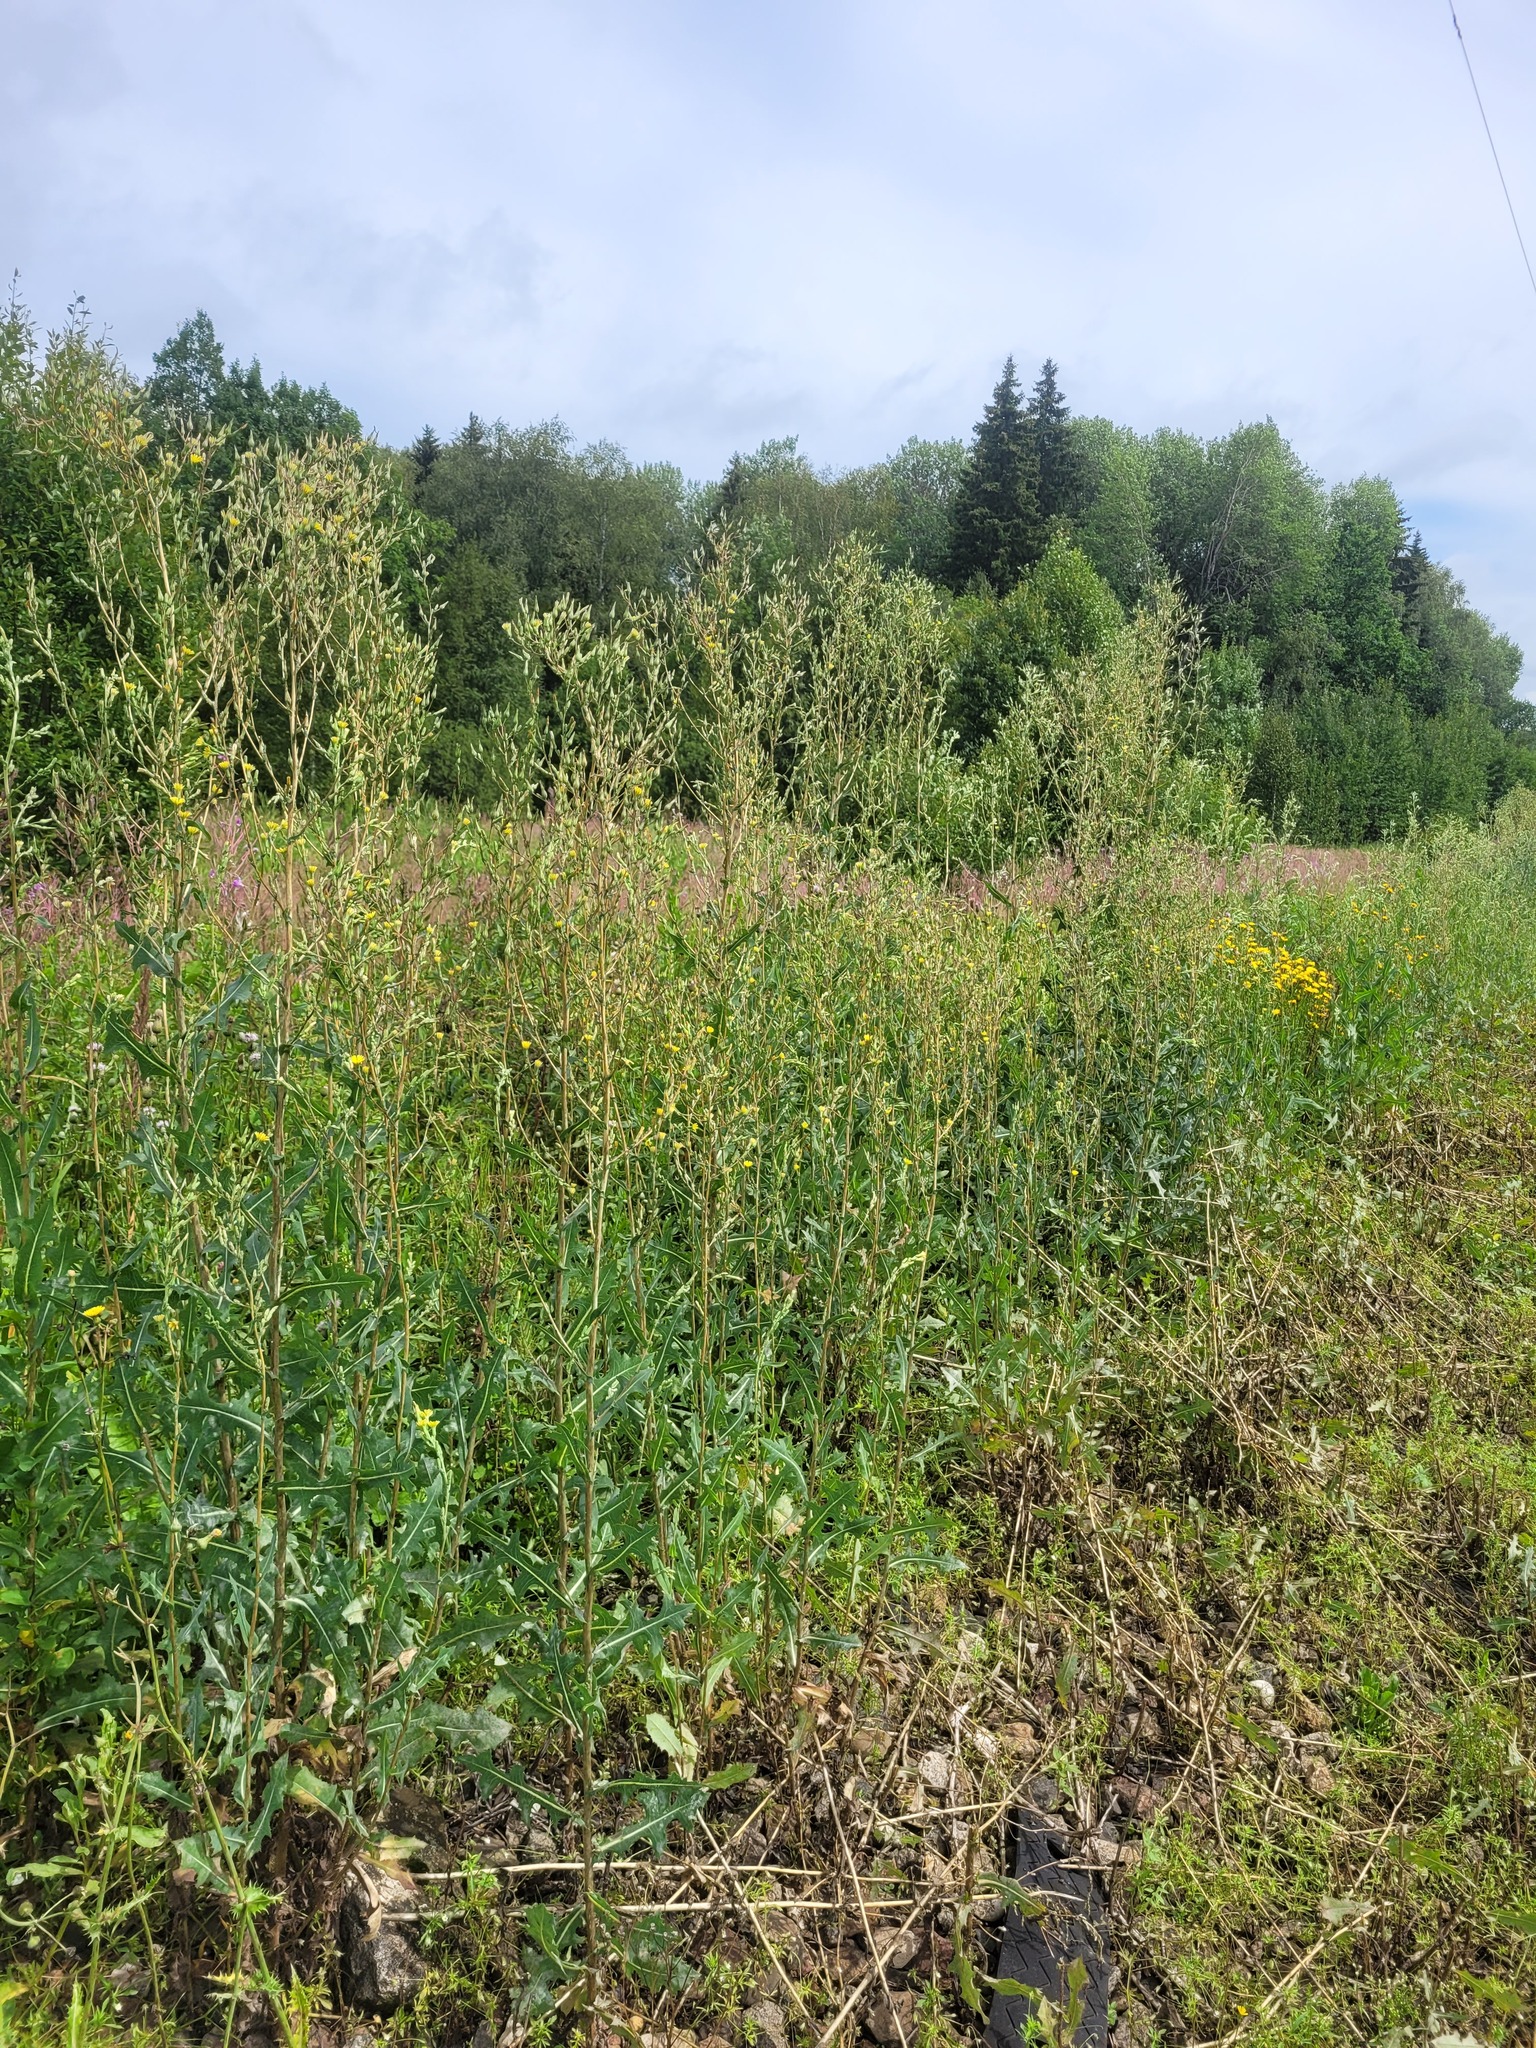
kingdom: Plantae
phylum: Tracheophyta
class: Magnoliopsida
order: Asterales
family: Asteraceae
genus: Lactuca
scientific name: Lactuca serriola
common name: Prickly lettuce
